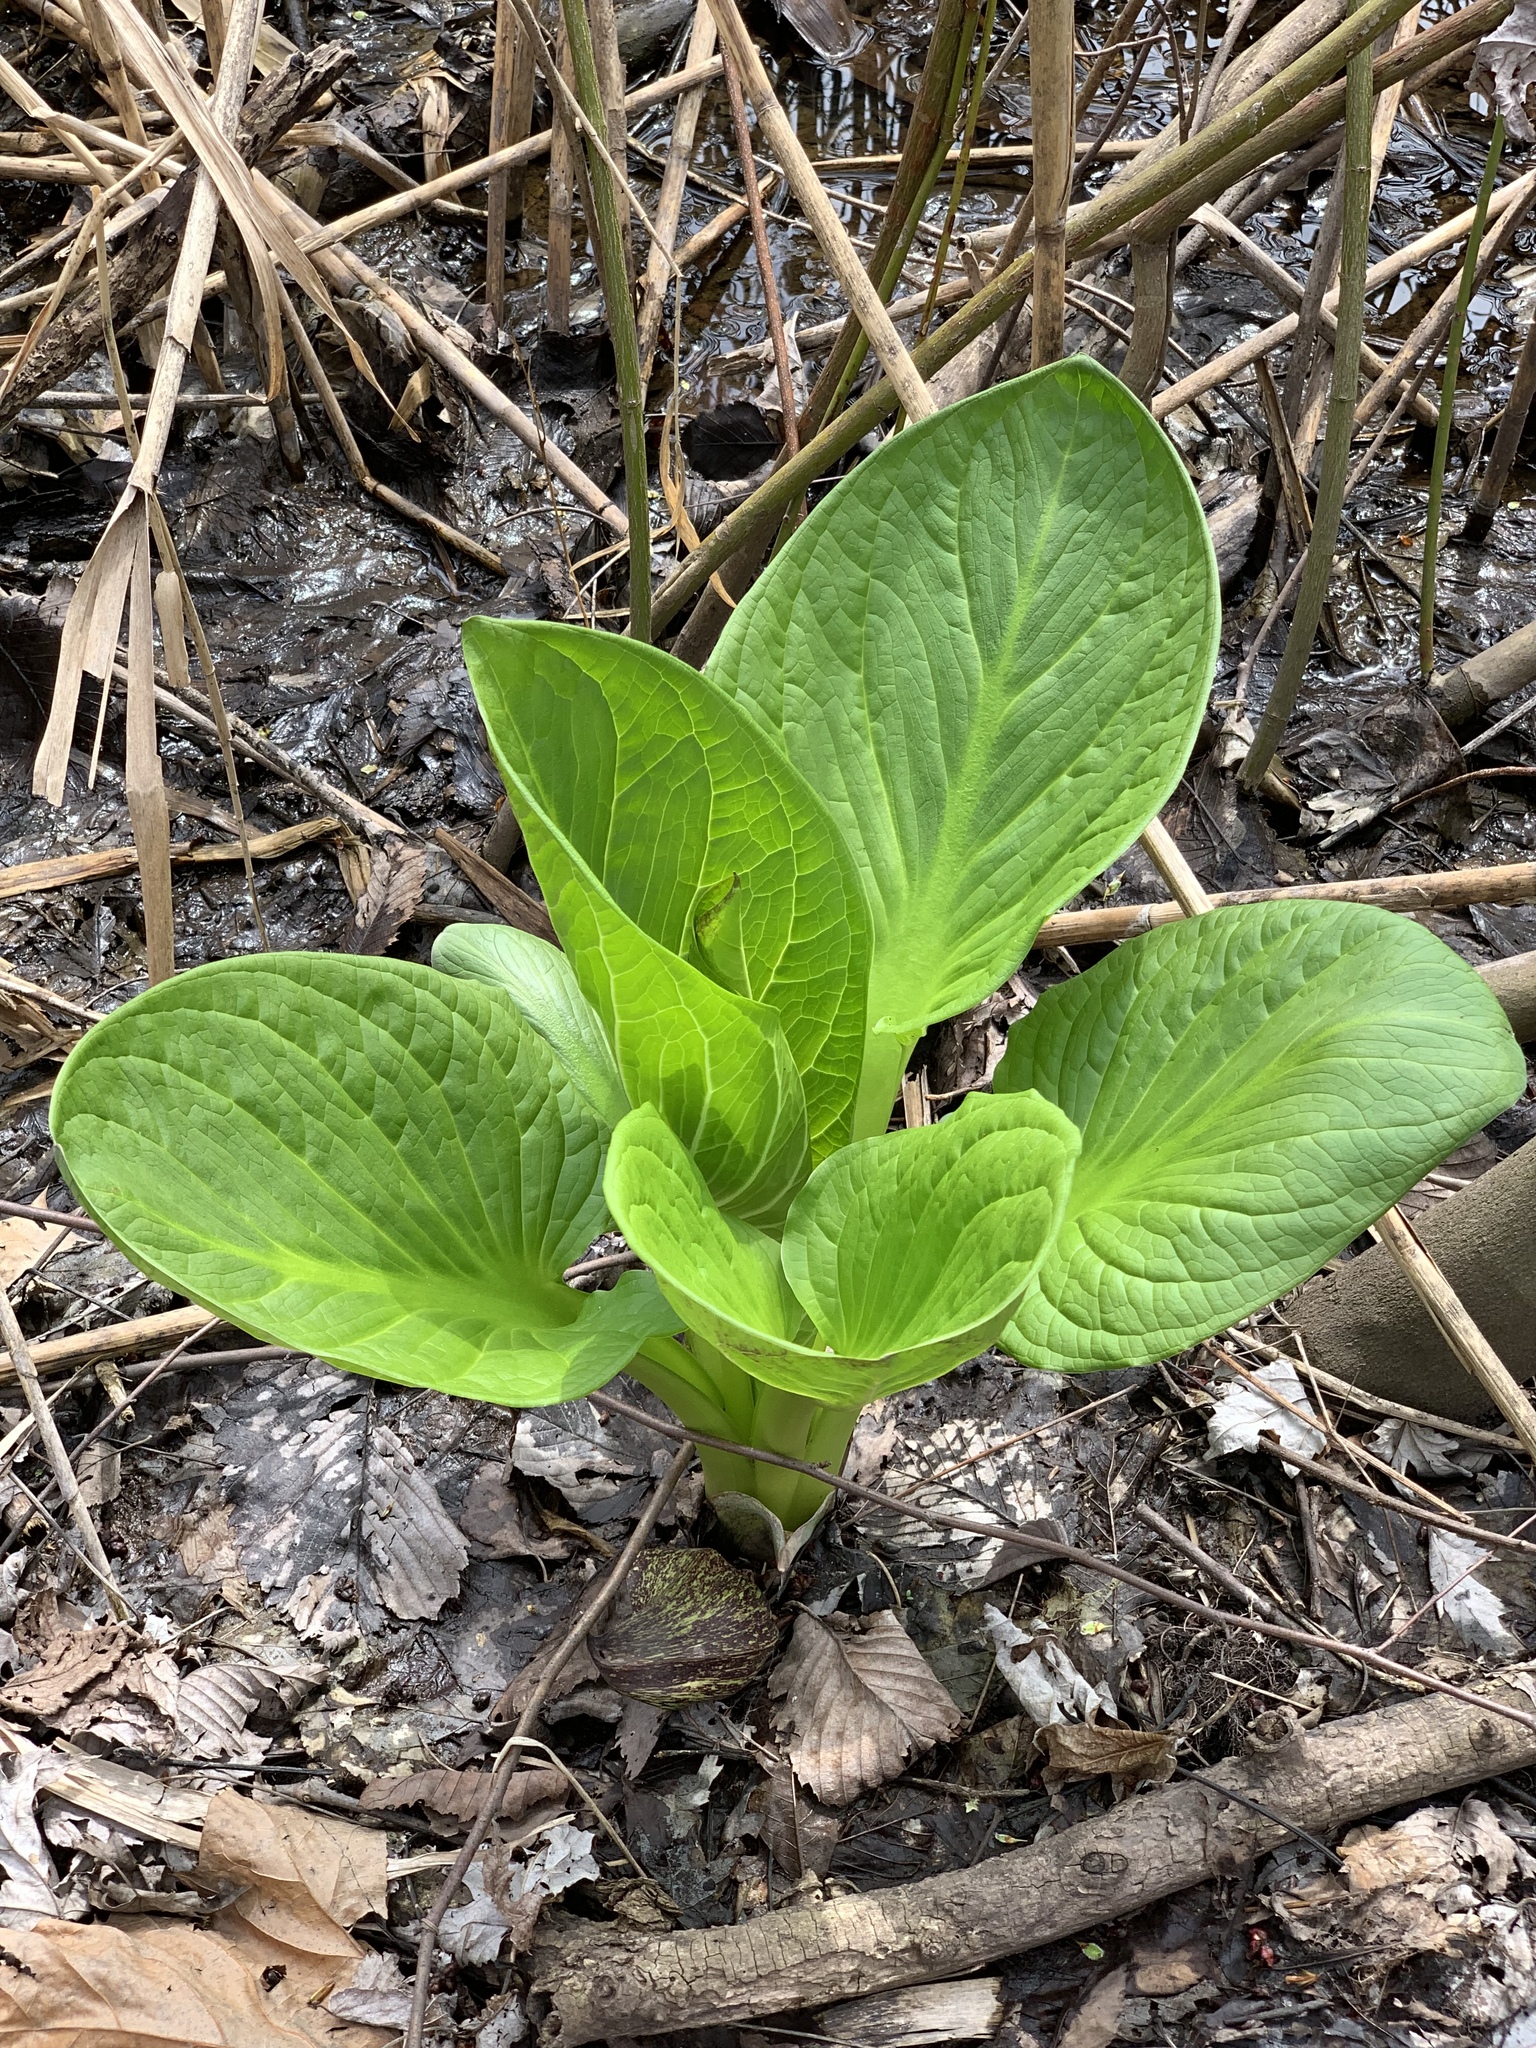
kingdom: Plantae
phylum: Tracheophyta
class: Liliopsida
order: Alismatales
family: Araceae
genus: Symplocarpus
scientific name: Symplocarpus foetidus
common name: Eastern skunk cabbage
